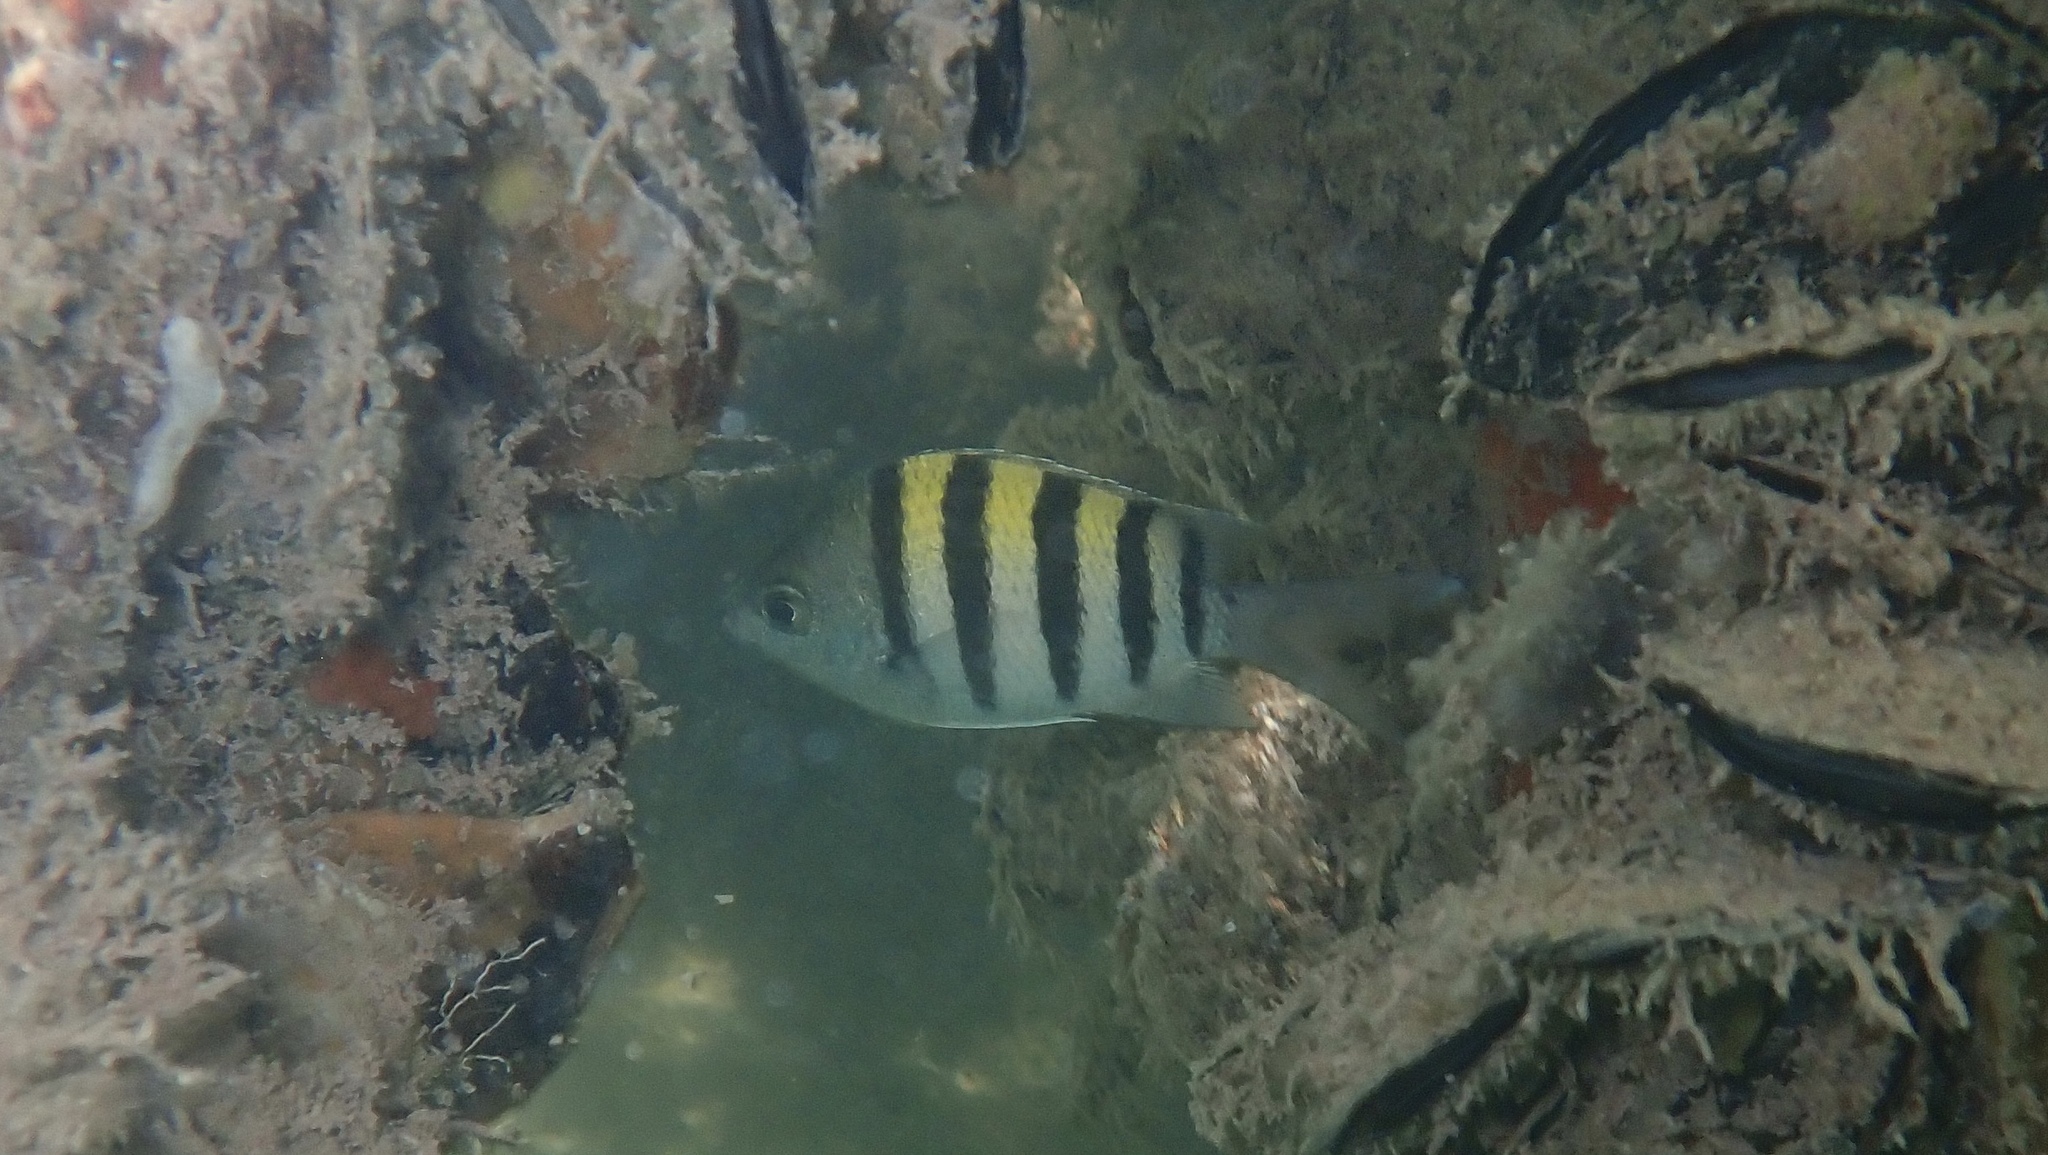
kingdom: Animalia
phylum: Chordata
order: Perciformes
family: Pomacentridae
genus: Abudefduf
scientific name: Abudefduf saxatilis
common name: Sergeant major
